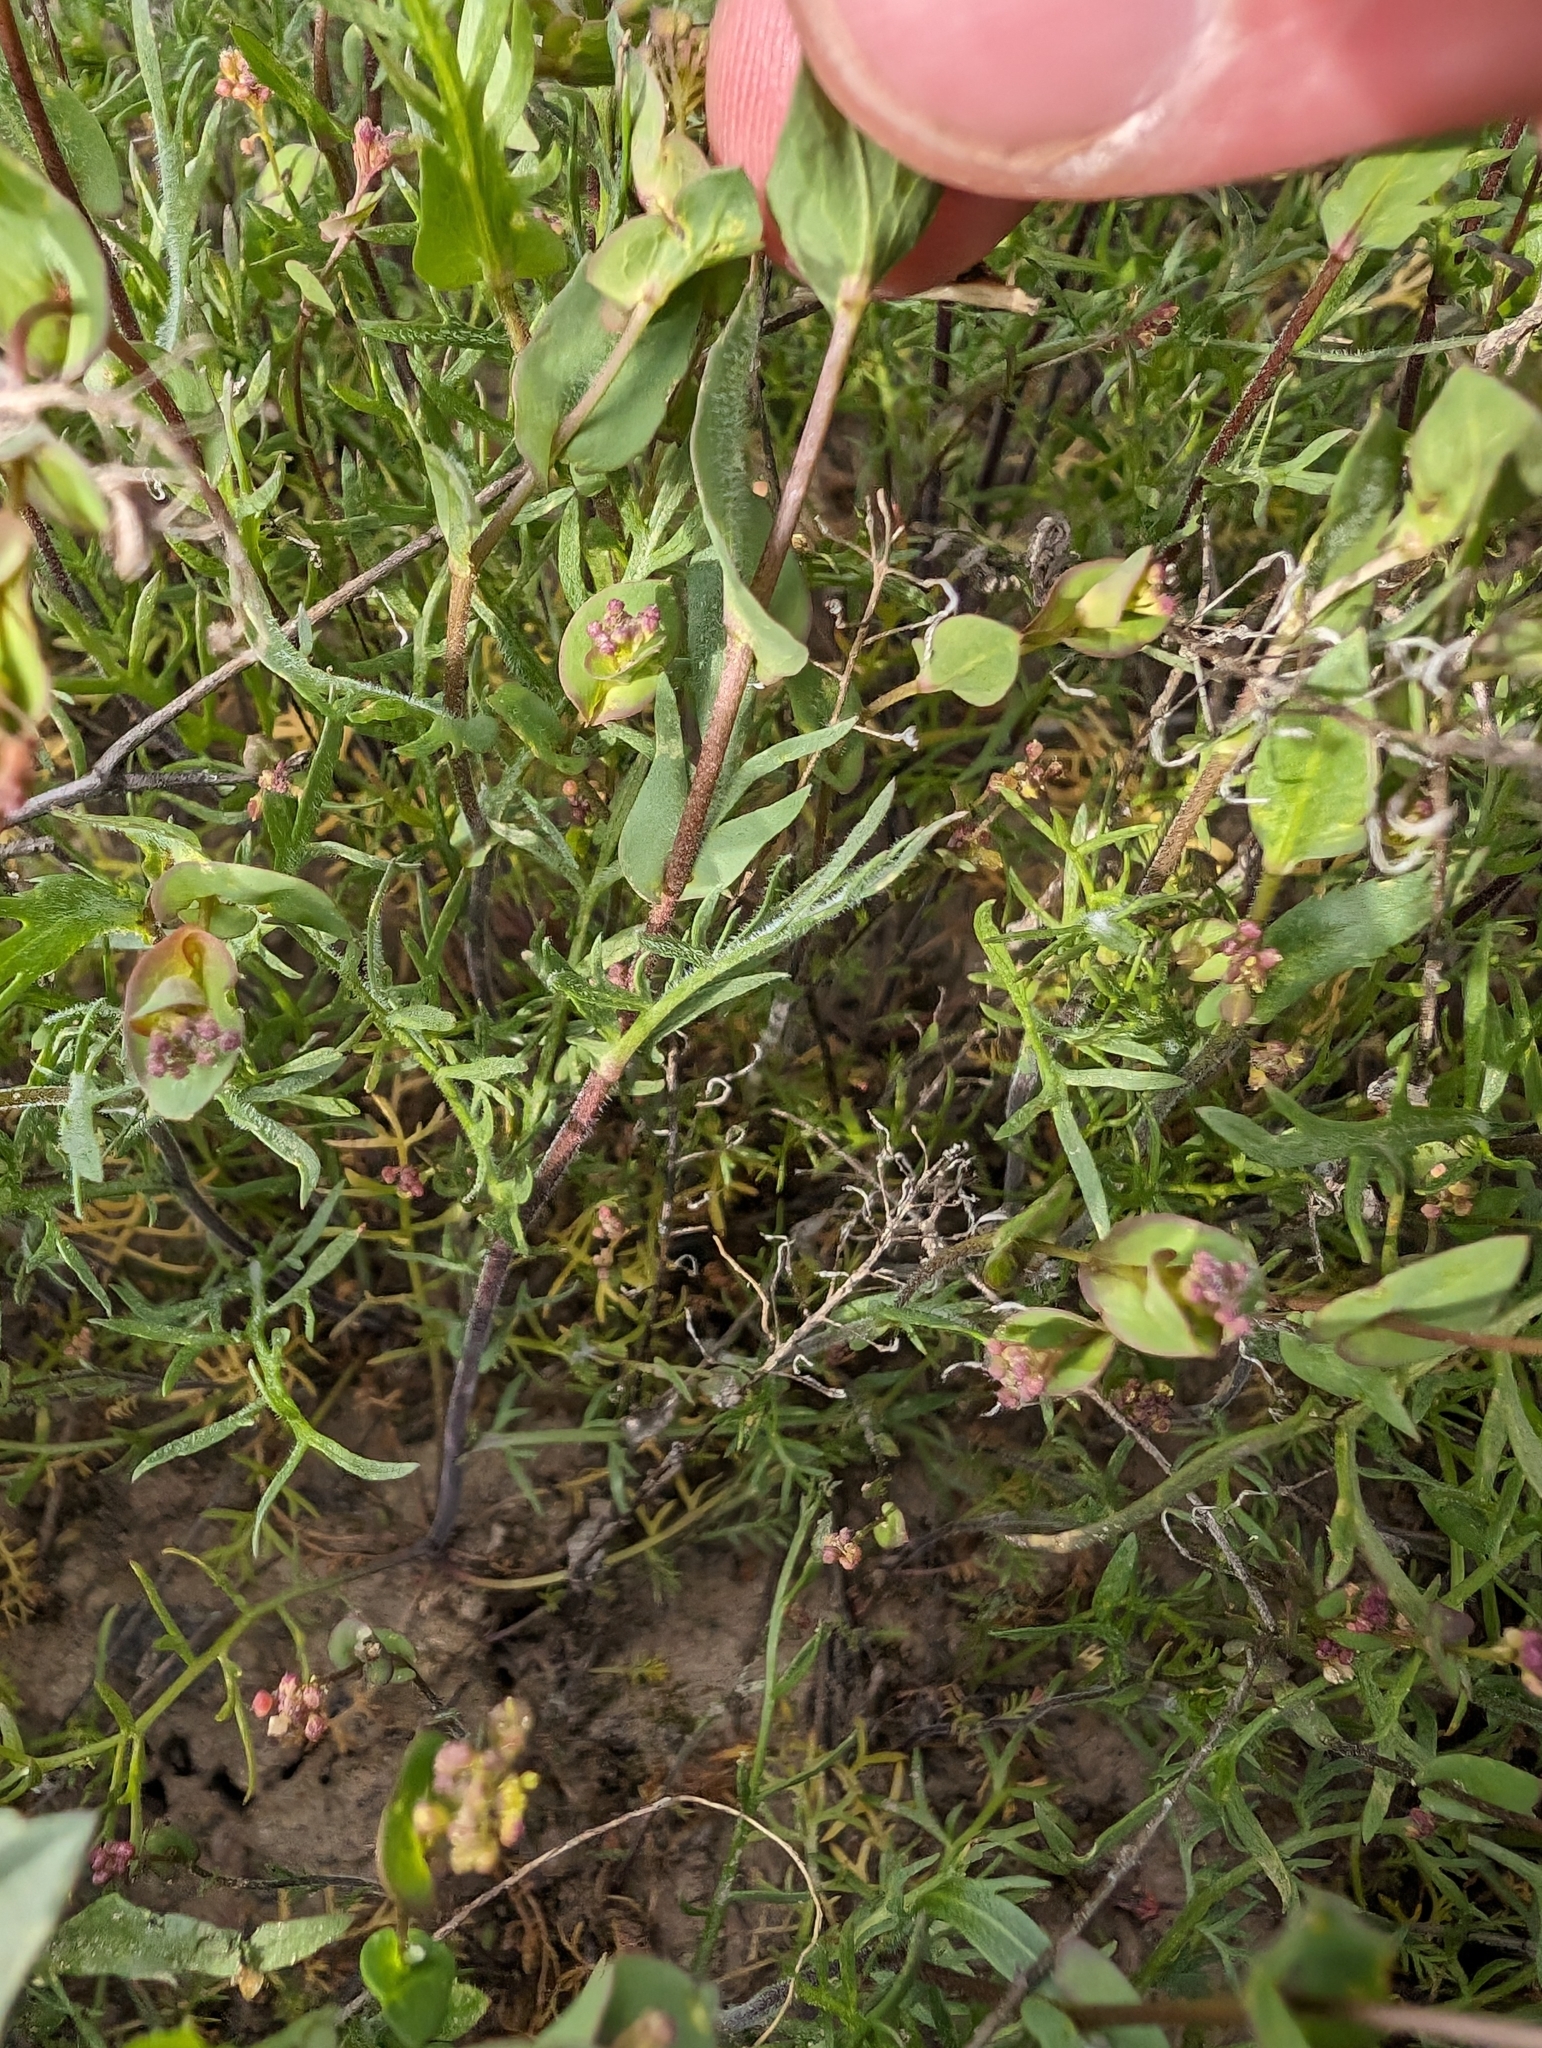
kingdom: Plantae
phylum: Tracheophyta
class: Magnoliopsida
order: Brassicales
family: Brassicaceae
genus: Lepidium
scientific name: Lepidium perfoliatum
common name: Perfoliate pepperwort
